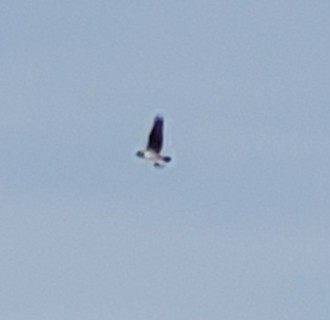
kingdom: Animalia
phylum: Chordata
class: Aves
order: Accipitriformes
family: Pandionidae
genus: Pandion
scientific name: Pandion haliaetus
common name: Osprey
